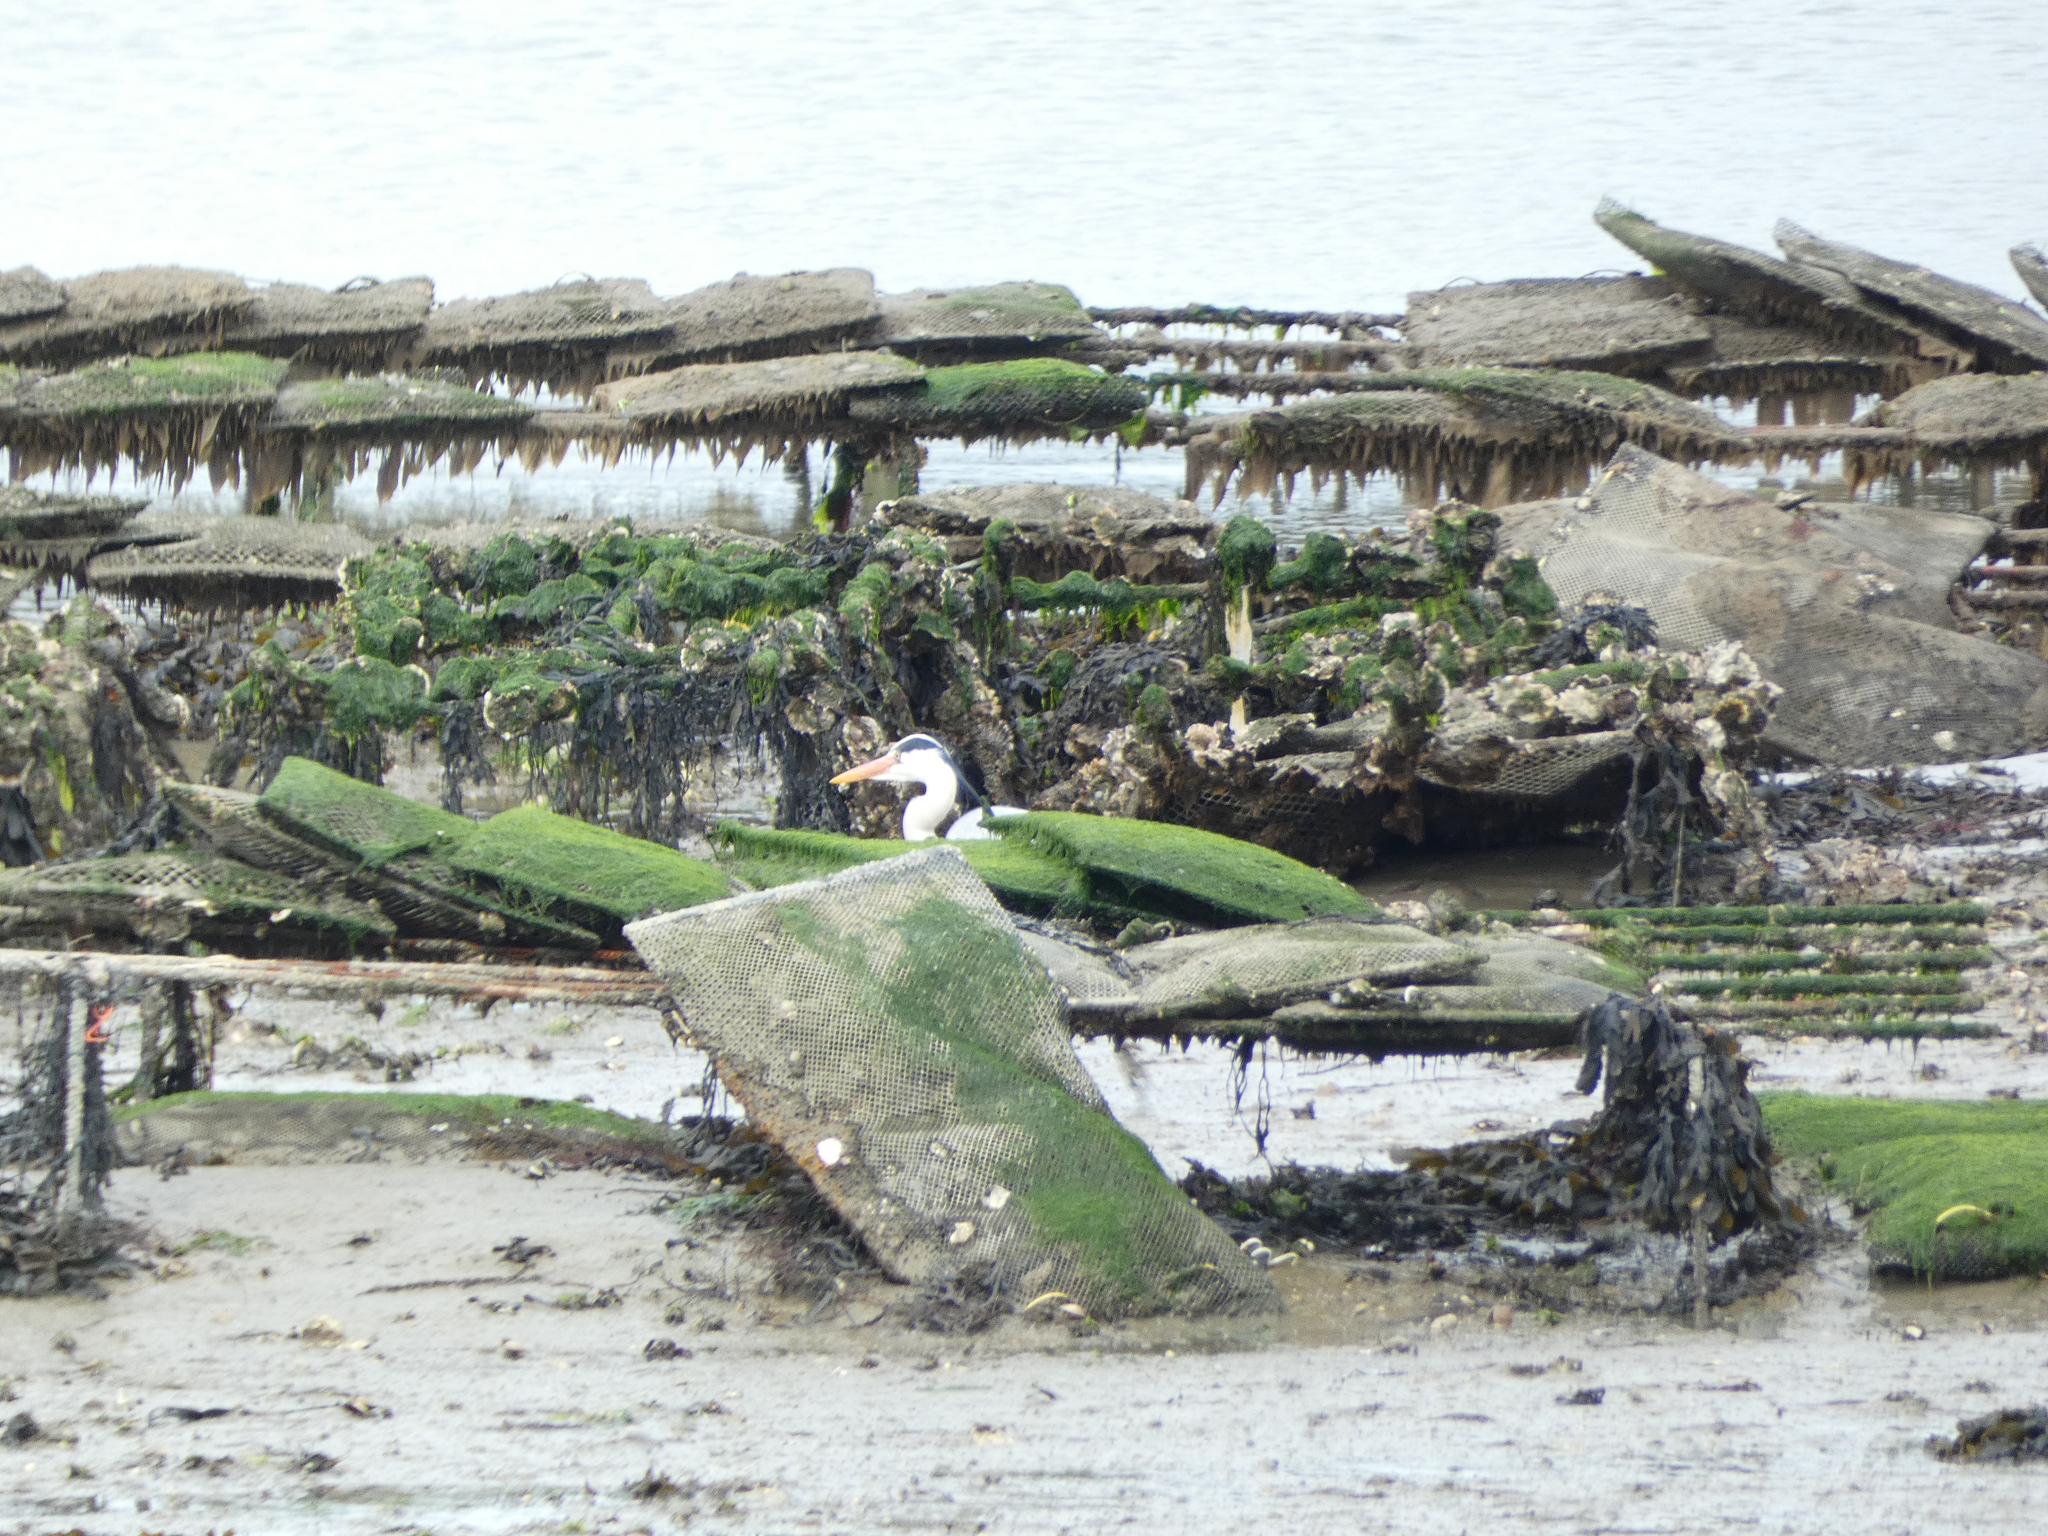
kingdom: Animalia
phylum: Chordata
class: Aves
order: Pelecaniformes
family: Ardeidae
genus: Ardea
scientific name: Ardea cinerea
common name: Grey heron
